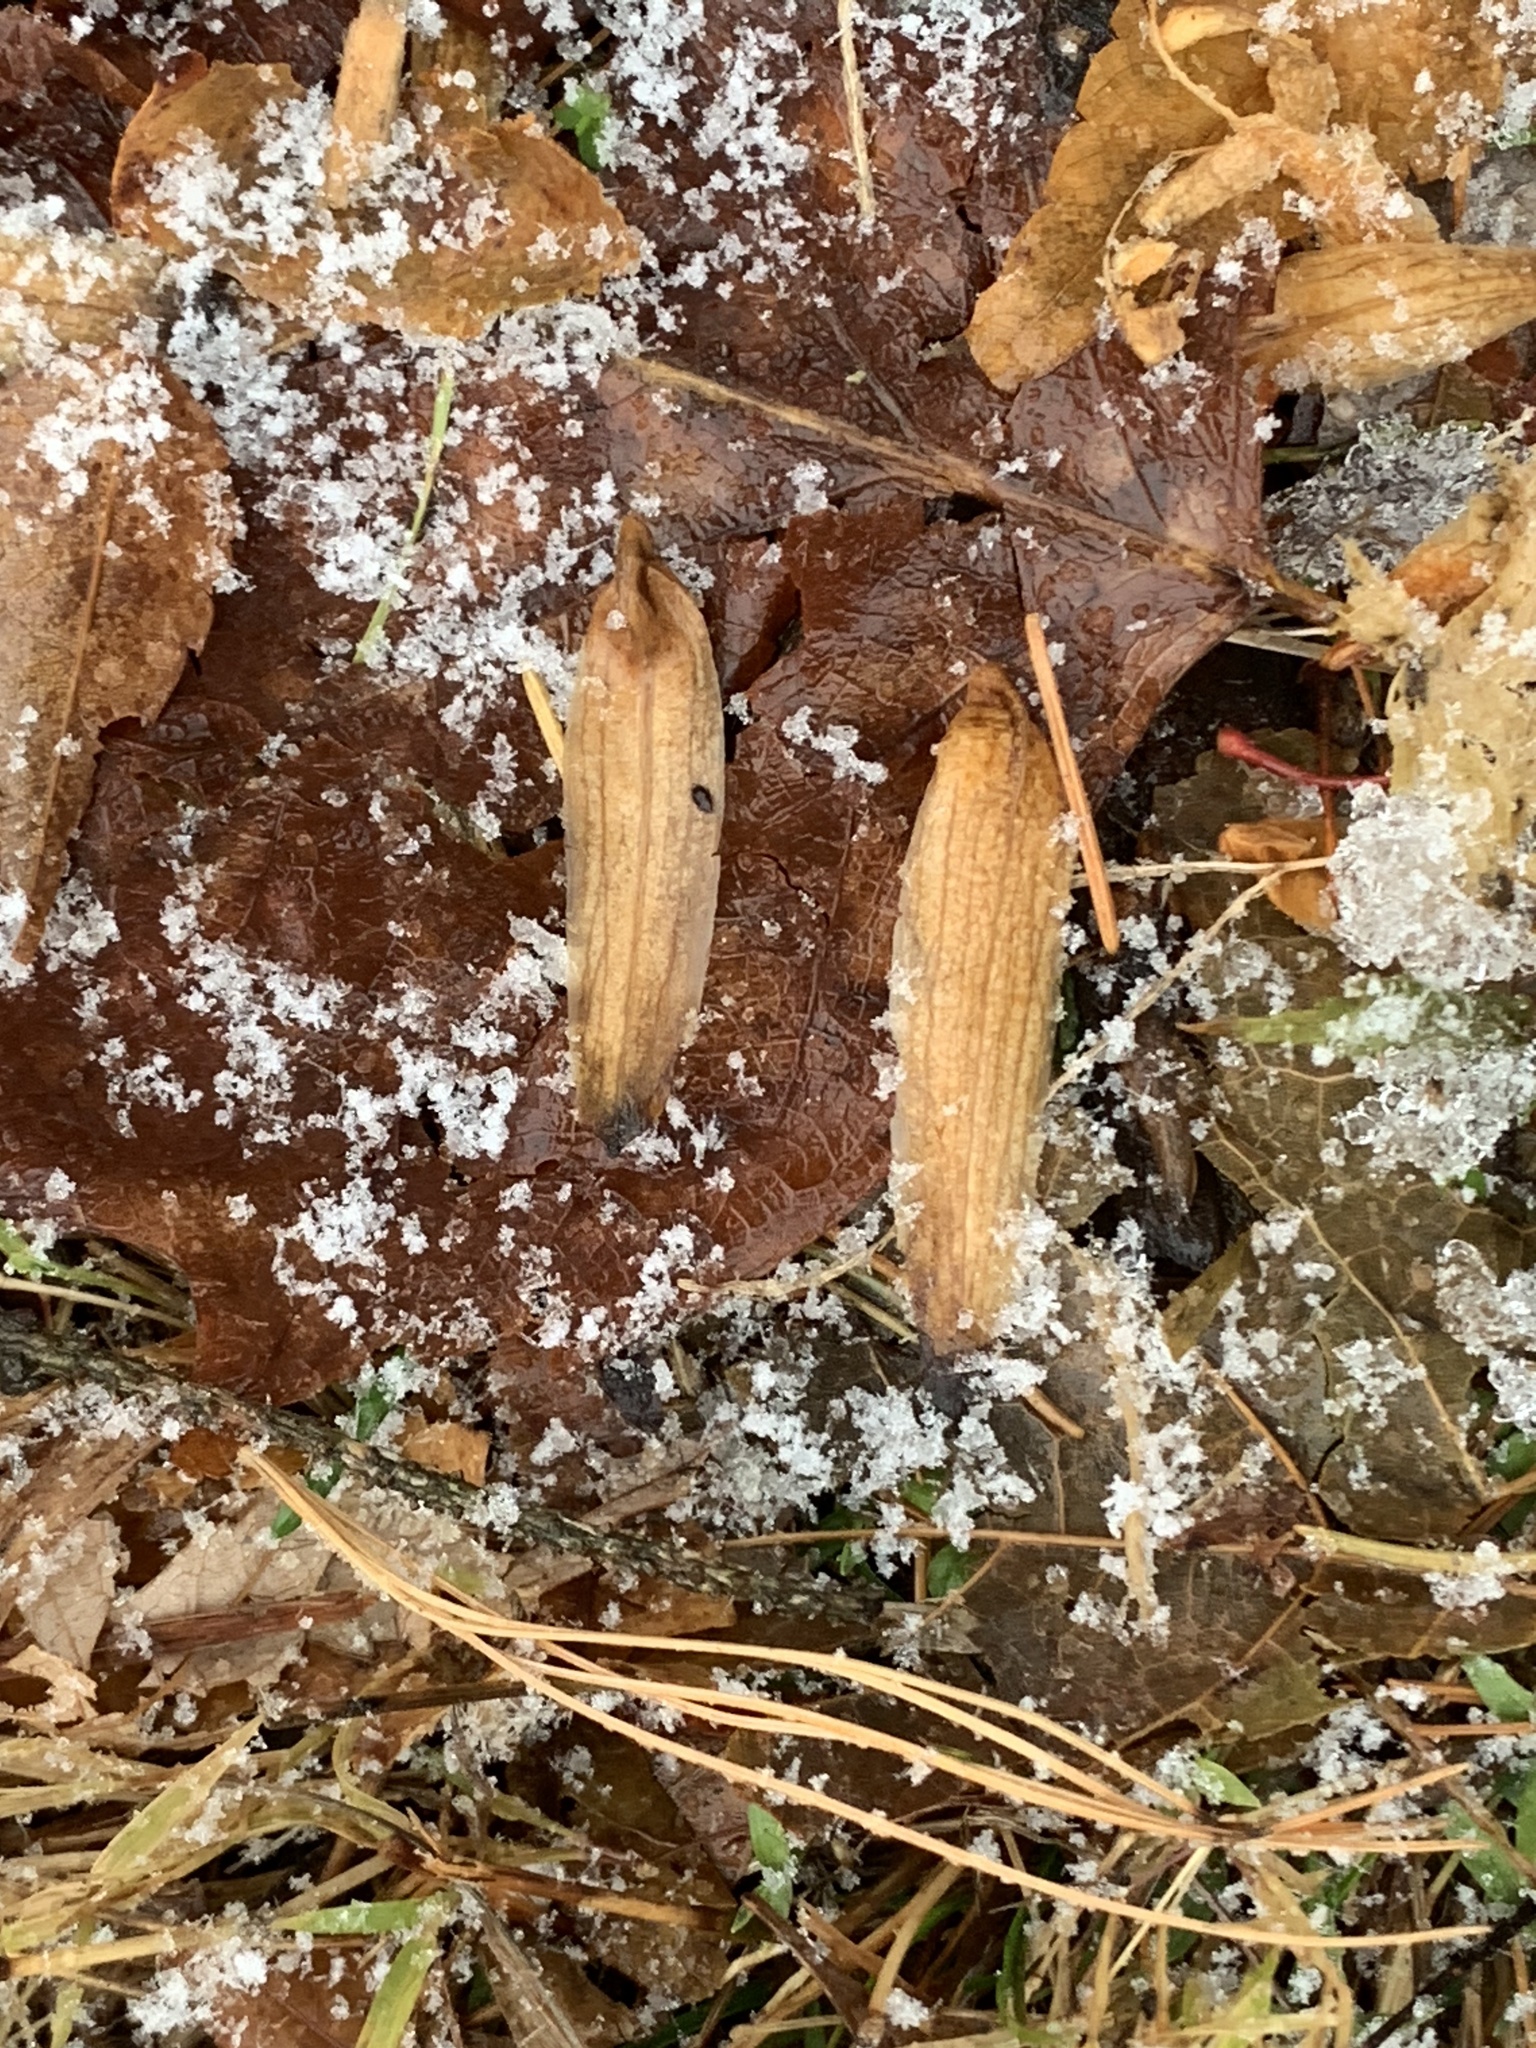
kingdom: Plantae
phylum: Tracheophyta
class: Magnoliopsida
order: Magnoliales
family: Magnoliaceae
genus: Liriodendron
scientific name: Liriodendron tulipifera
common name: Tulip tree
